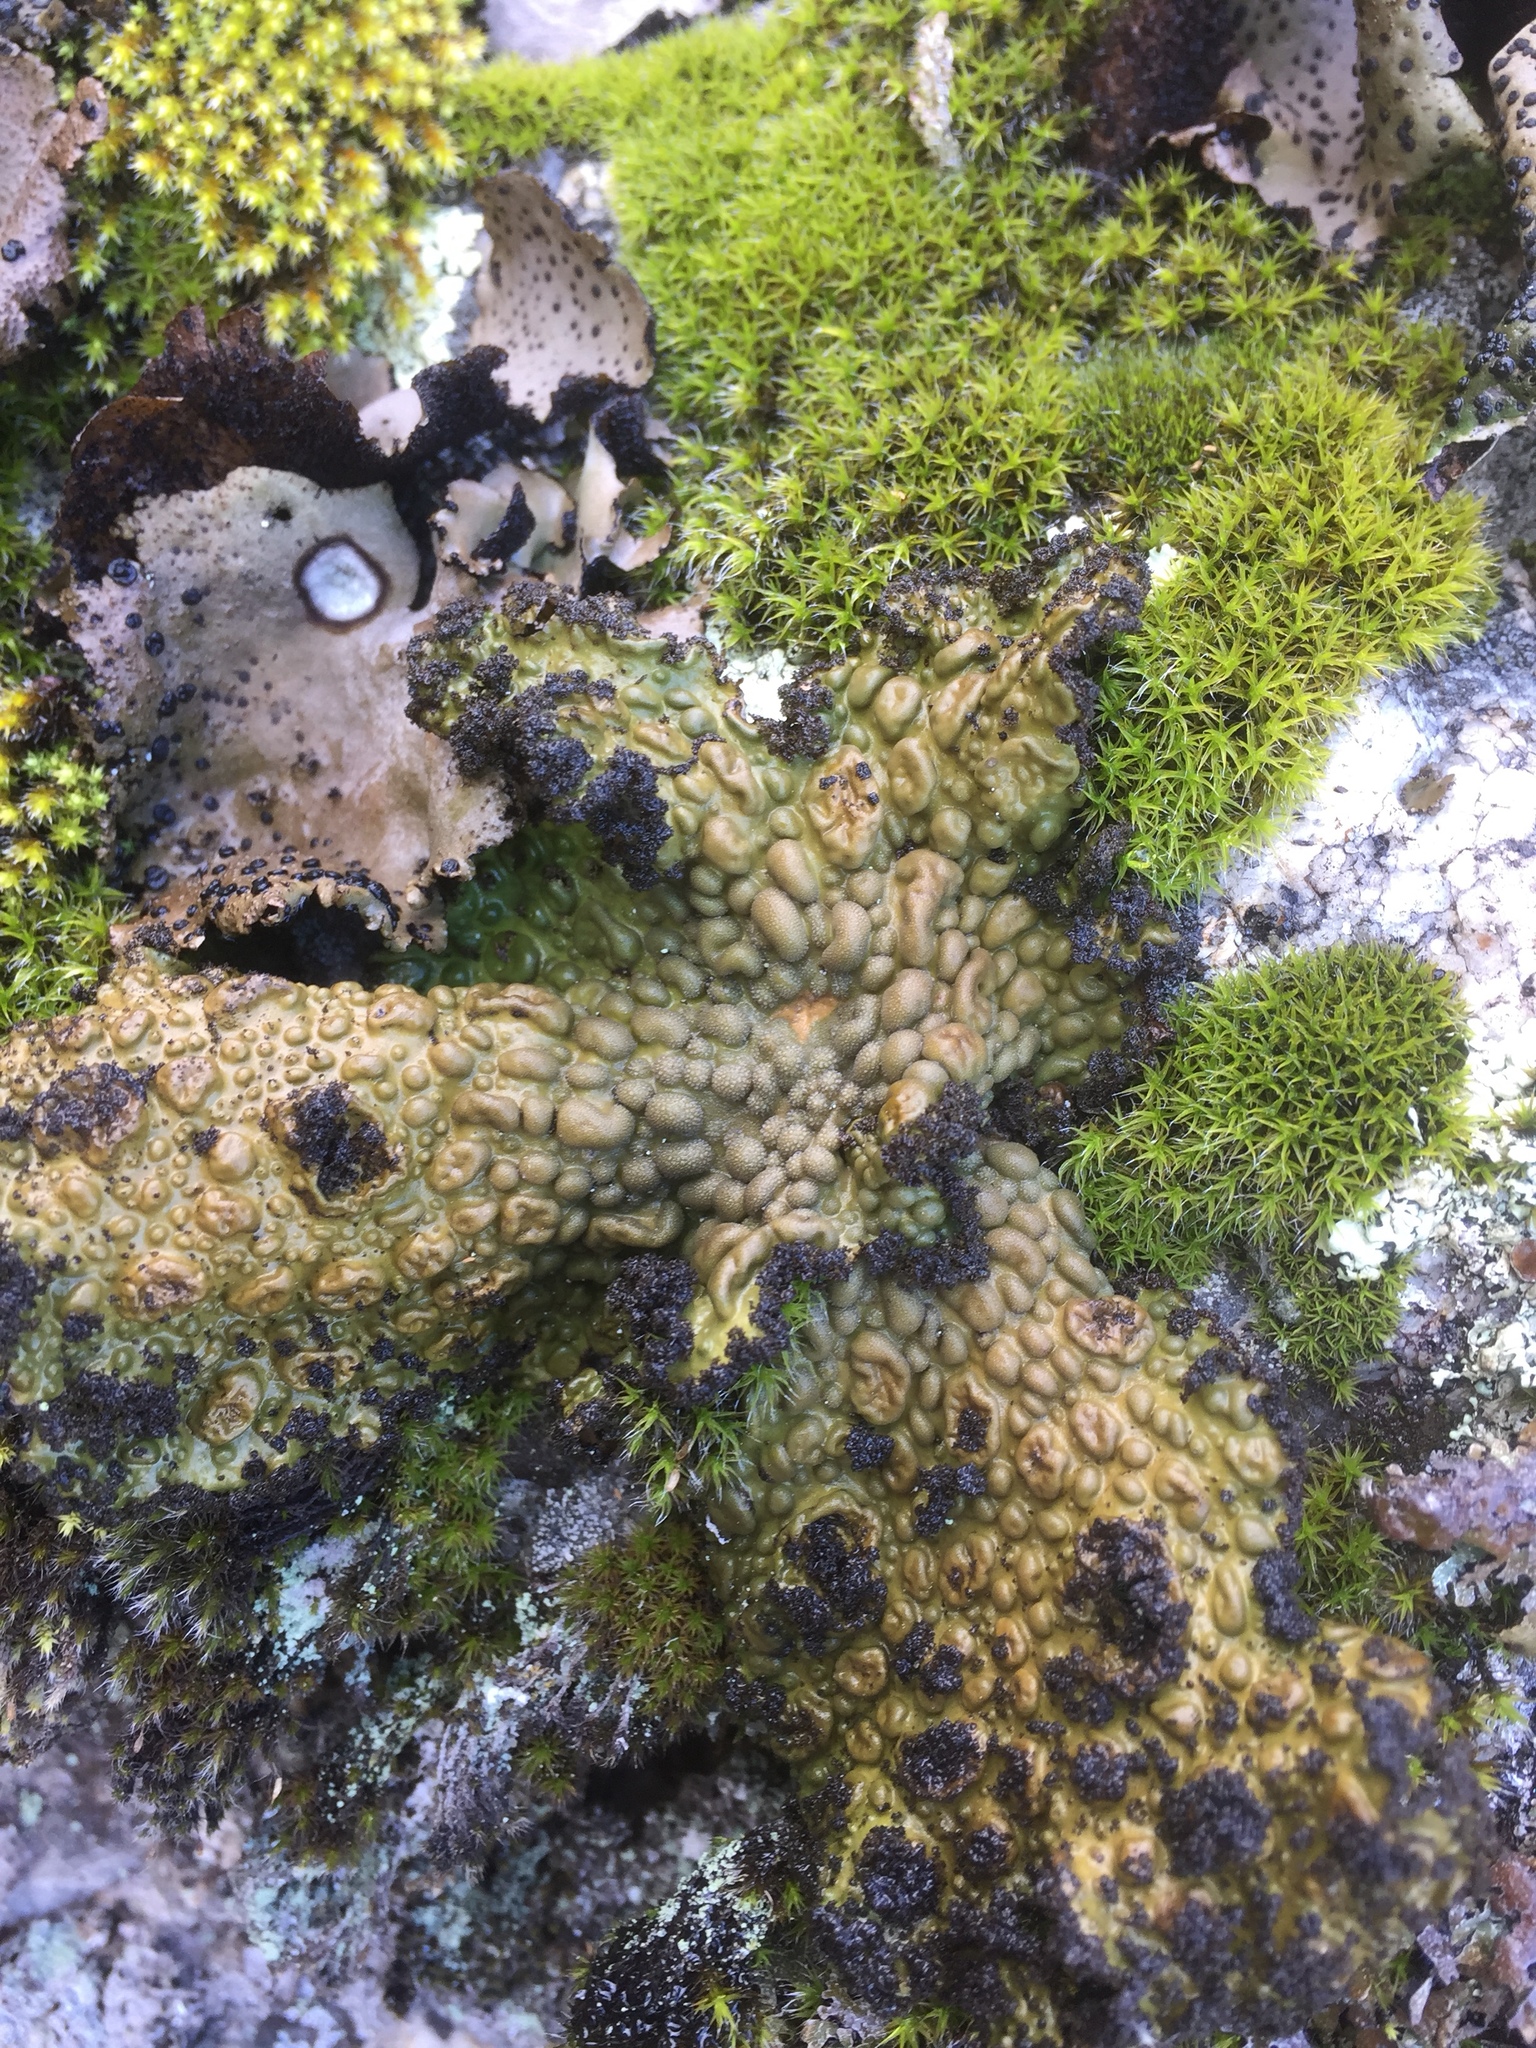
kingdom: Fungi
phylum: Ascomycota
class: Lecanoromycetes
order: Umbilicariales
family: Umbilicariaceae
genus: Lasallia
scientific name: Lasallia pustulata
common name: Blistered toadskin lichen
